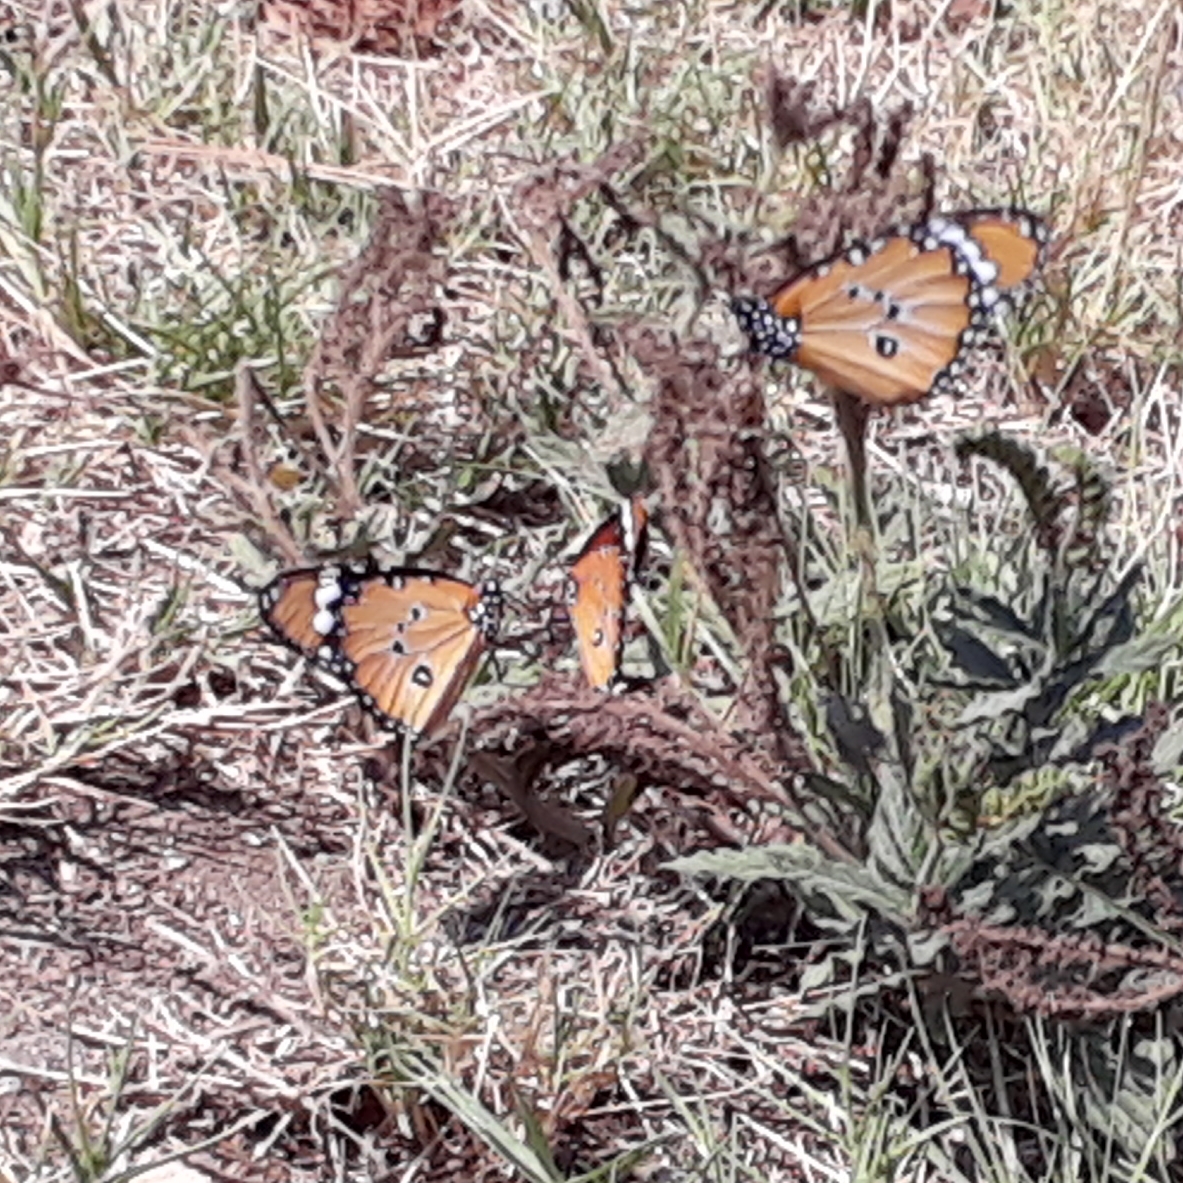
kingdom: Animalia
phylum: Arthropoda
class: Insecta
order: Lepidoptera
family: Nymphalidae
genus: Danaus
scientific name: Danaus chrysippus
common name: Plain tiger
